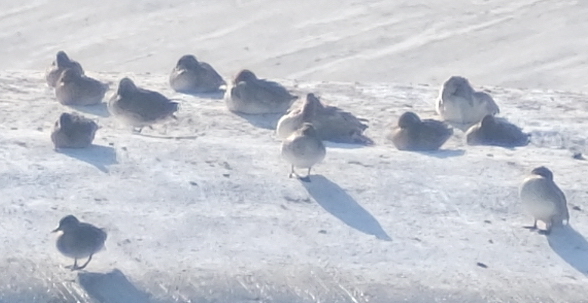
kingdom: Animalia
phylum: Chordata
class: Aves
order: Anseriformes
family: Anatidae
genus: Anas
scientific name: Anas crecca
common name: Eurasian teal
